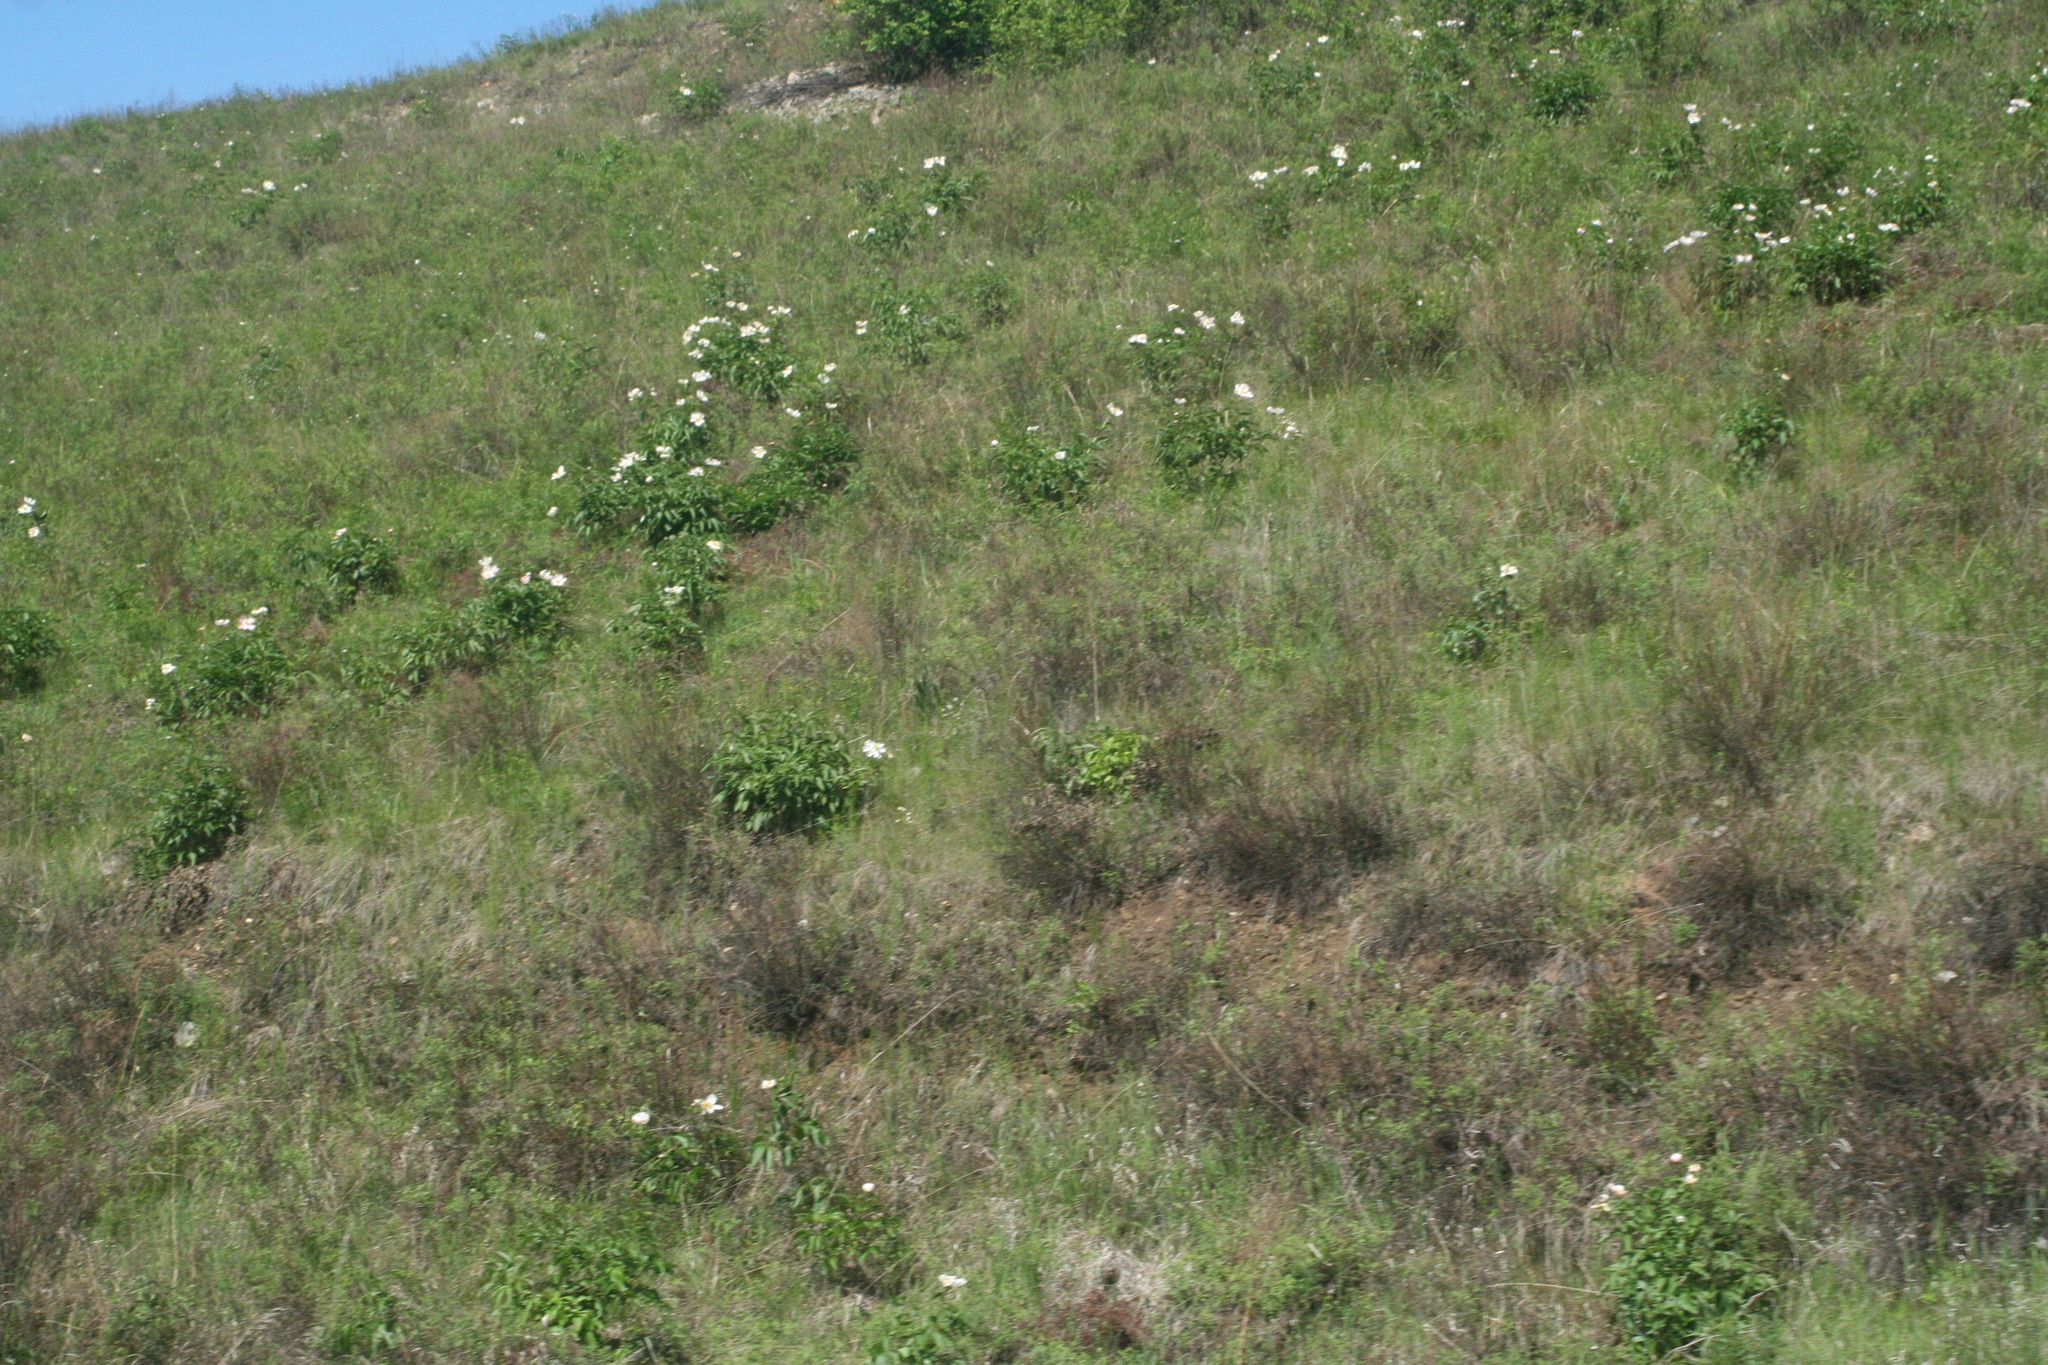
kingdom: Plantae
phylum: Tracheophyta
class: Magnoliopsida
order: Saxifragales
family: Paeoniaceae
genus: Paeonia
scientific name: Paeonia lactiflora
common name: Chinese peony
